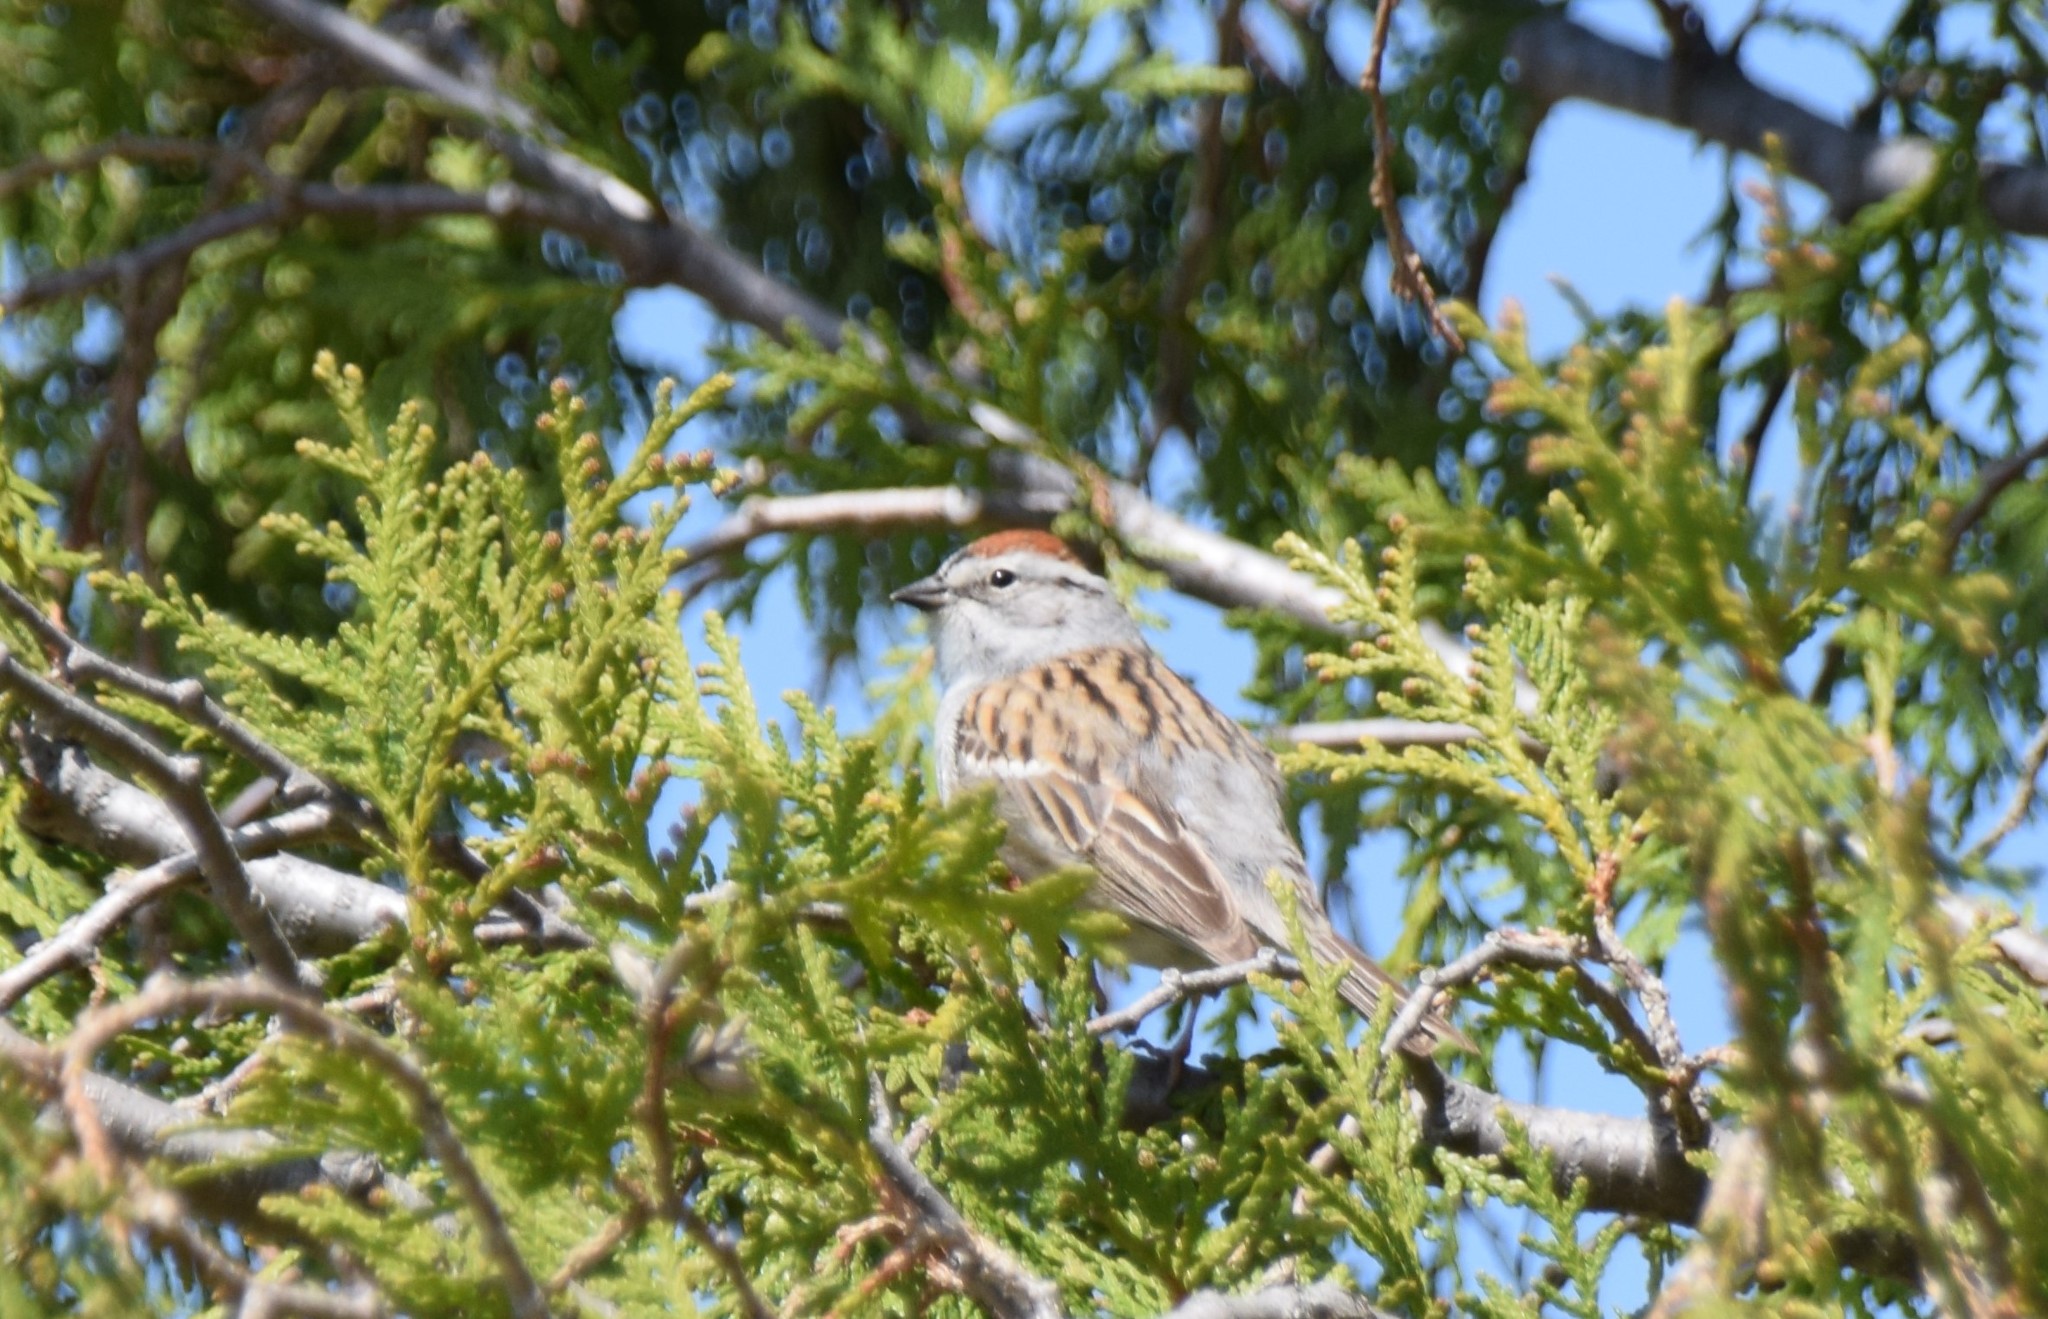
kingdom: Animalia
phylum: Chordata
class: Aves
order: Passeriformes
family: Passerellidae
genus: Spizella
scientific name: Spizella passerina
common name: Chipping sparrow
